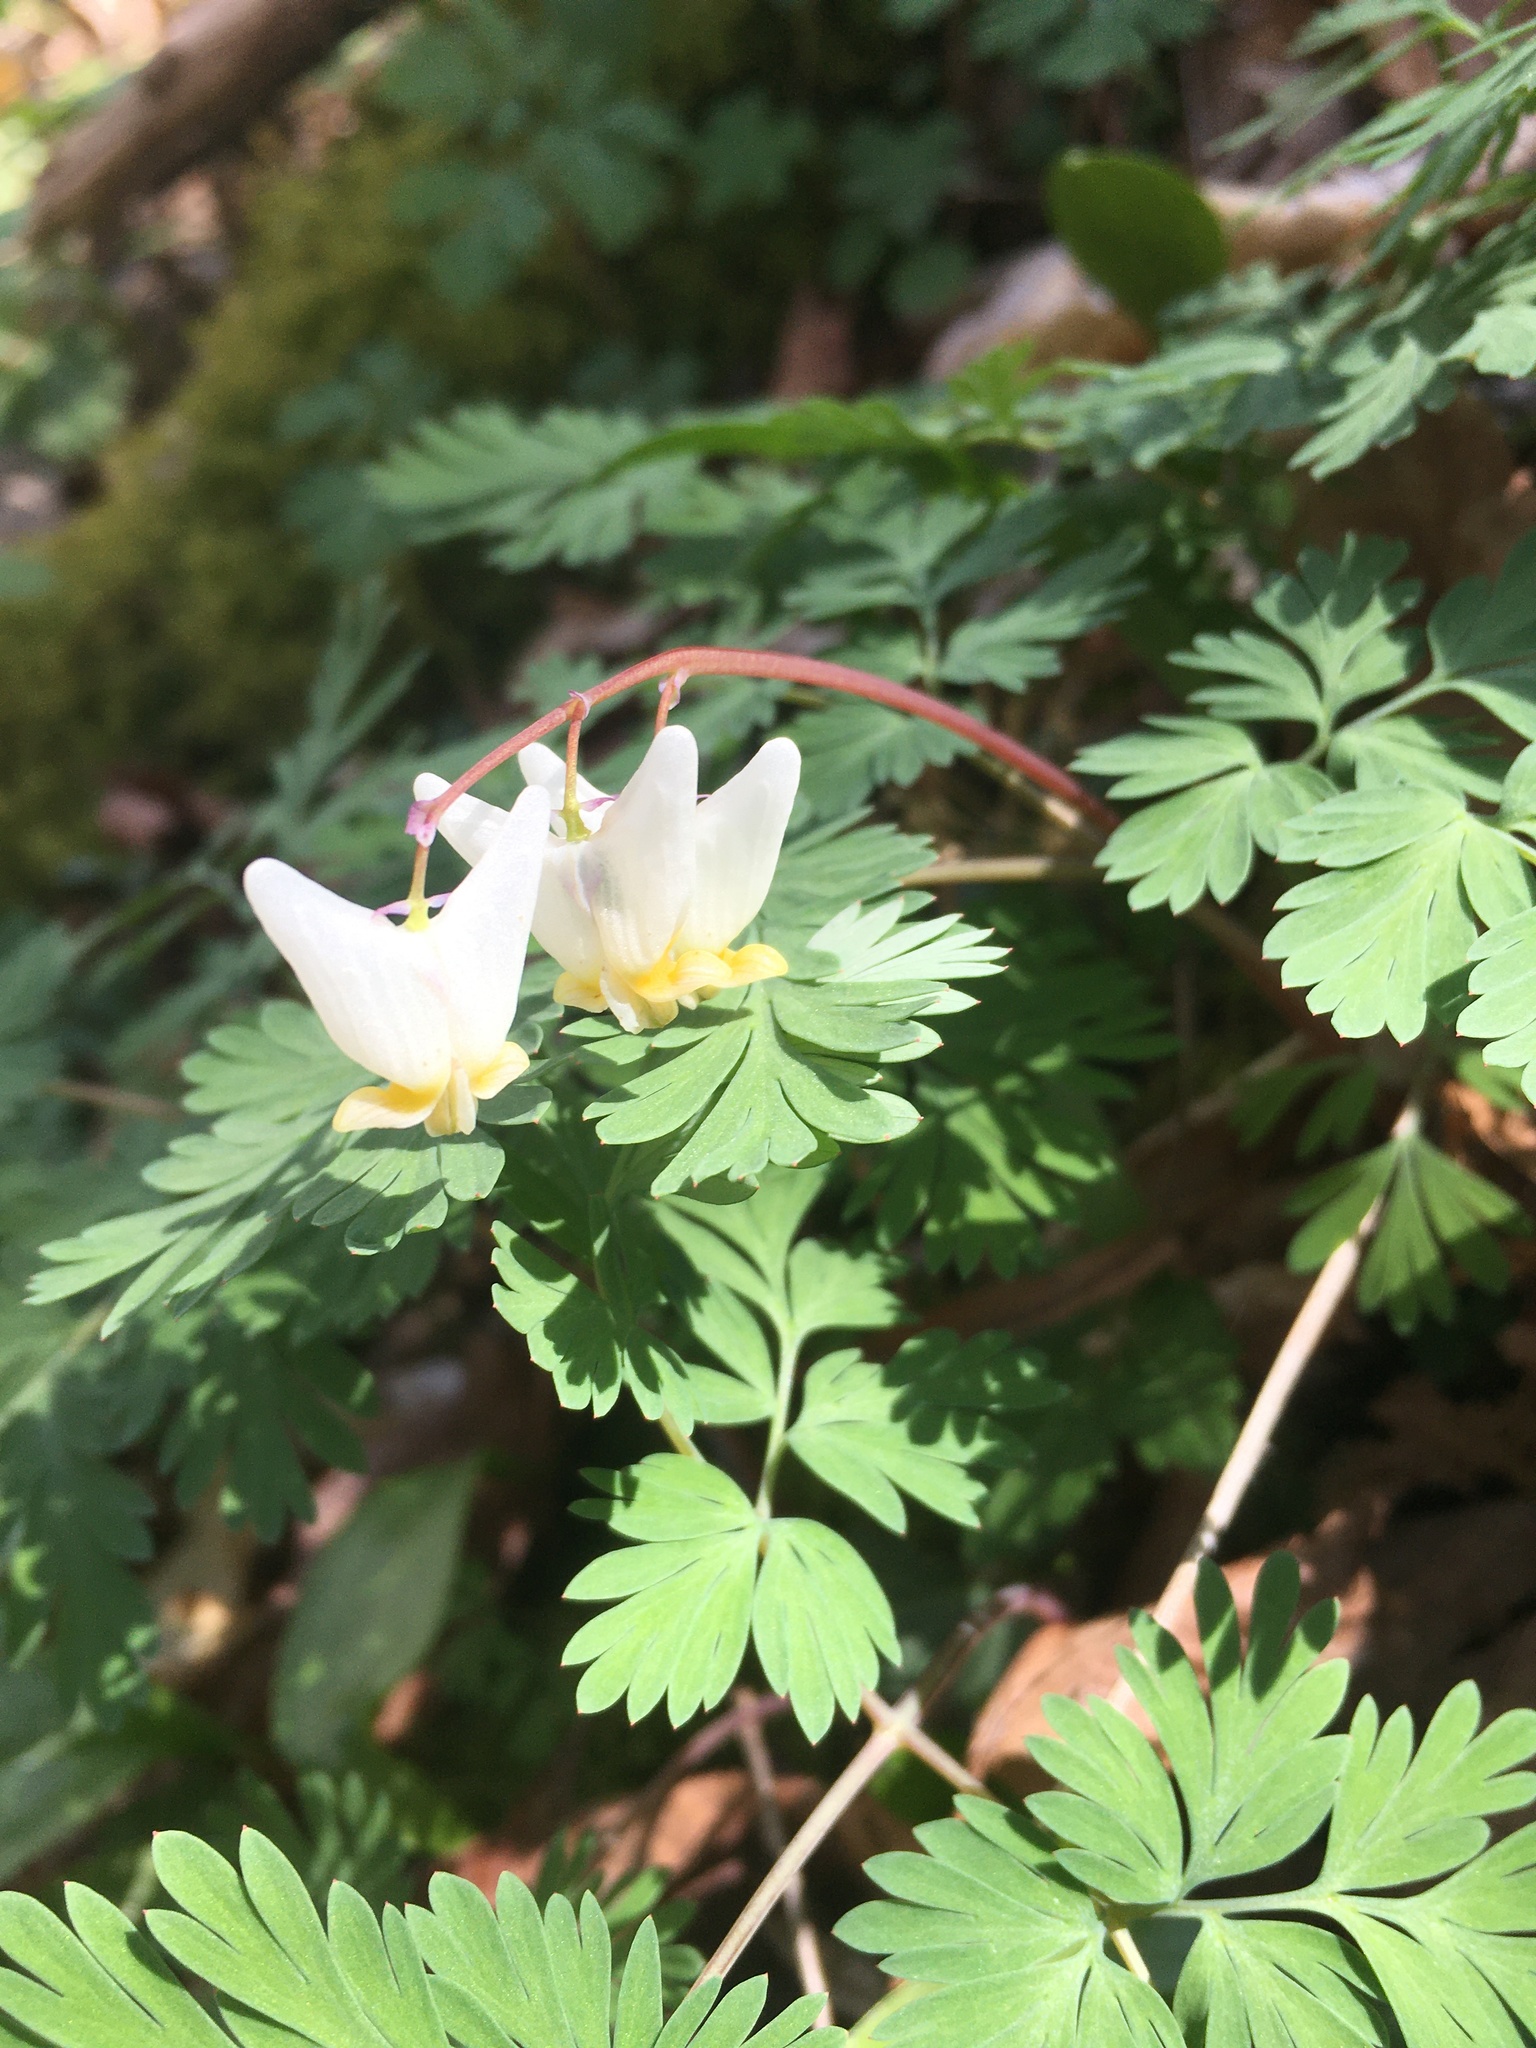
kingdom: Plantae
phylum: Tracheophyta
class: Magnoliopsida
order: Ranunculales
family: Papaveraceae
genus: Dicentra
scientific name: Dicentra cucullaria
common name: Dutchman's breeches
